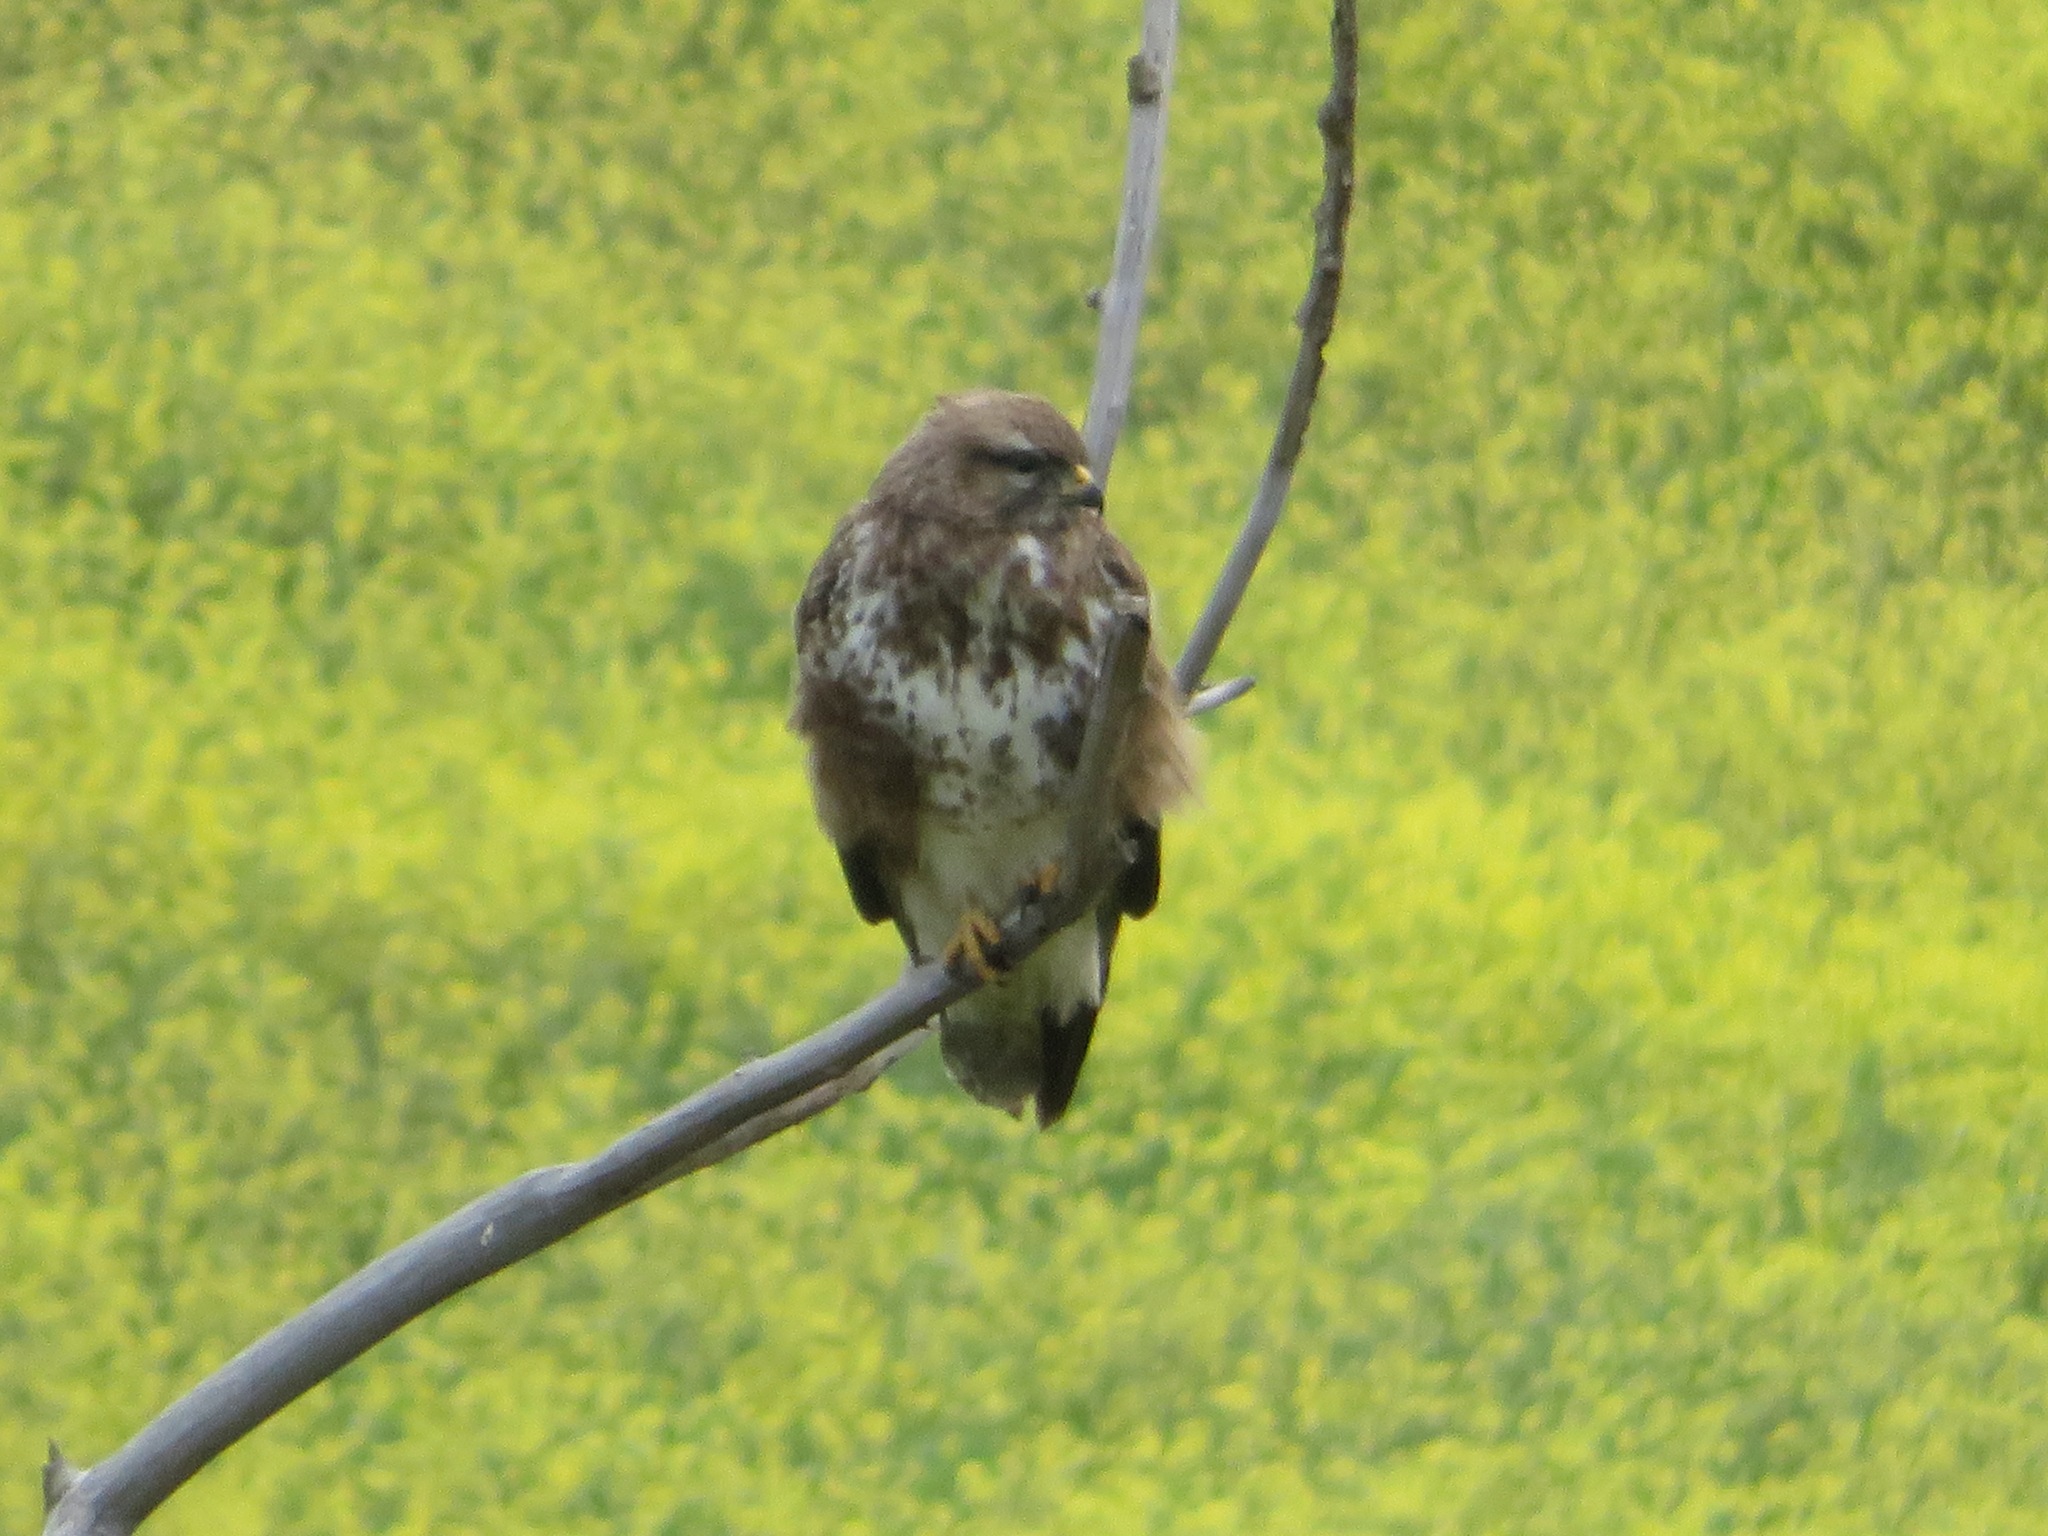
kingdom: Animalia
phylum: Chordata
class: Aves
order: Accipitriformes
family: Accipitridae
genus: Buteo
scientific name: Buteo buteo
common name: Common buzzard
